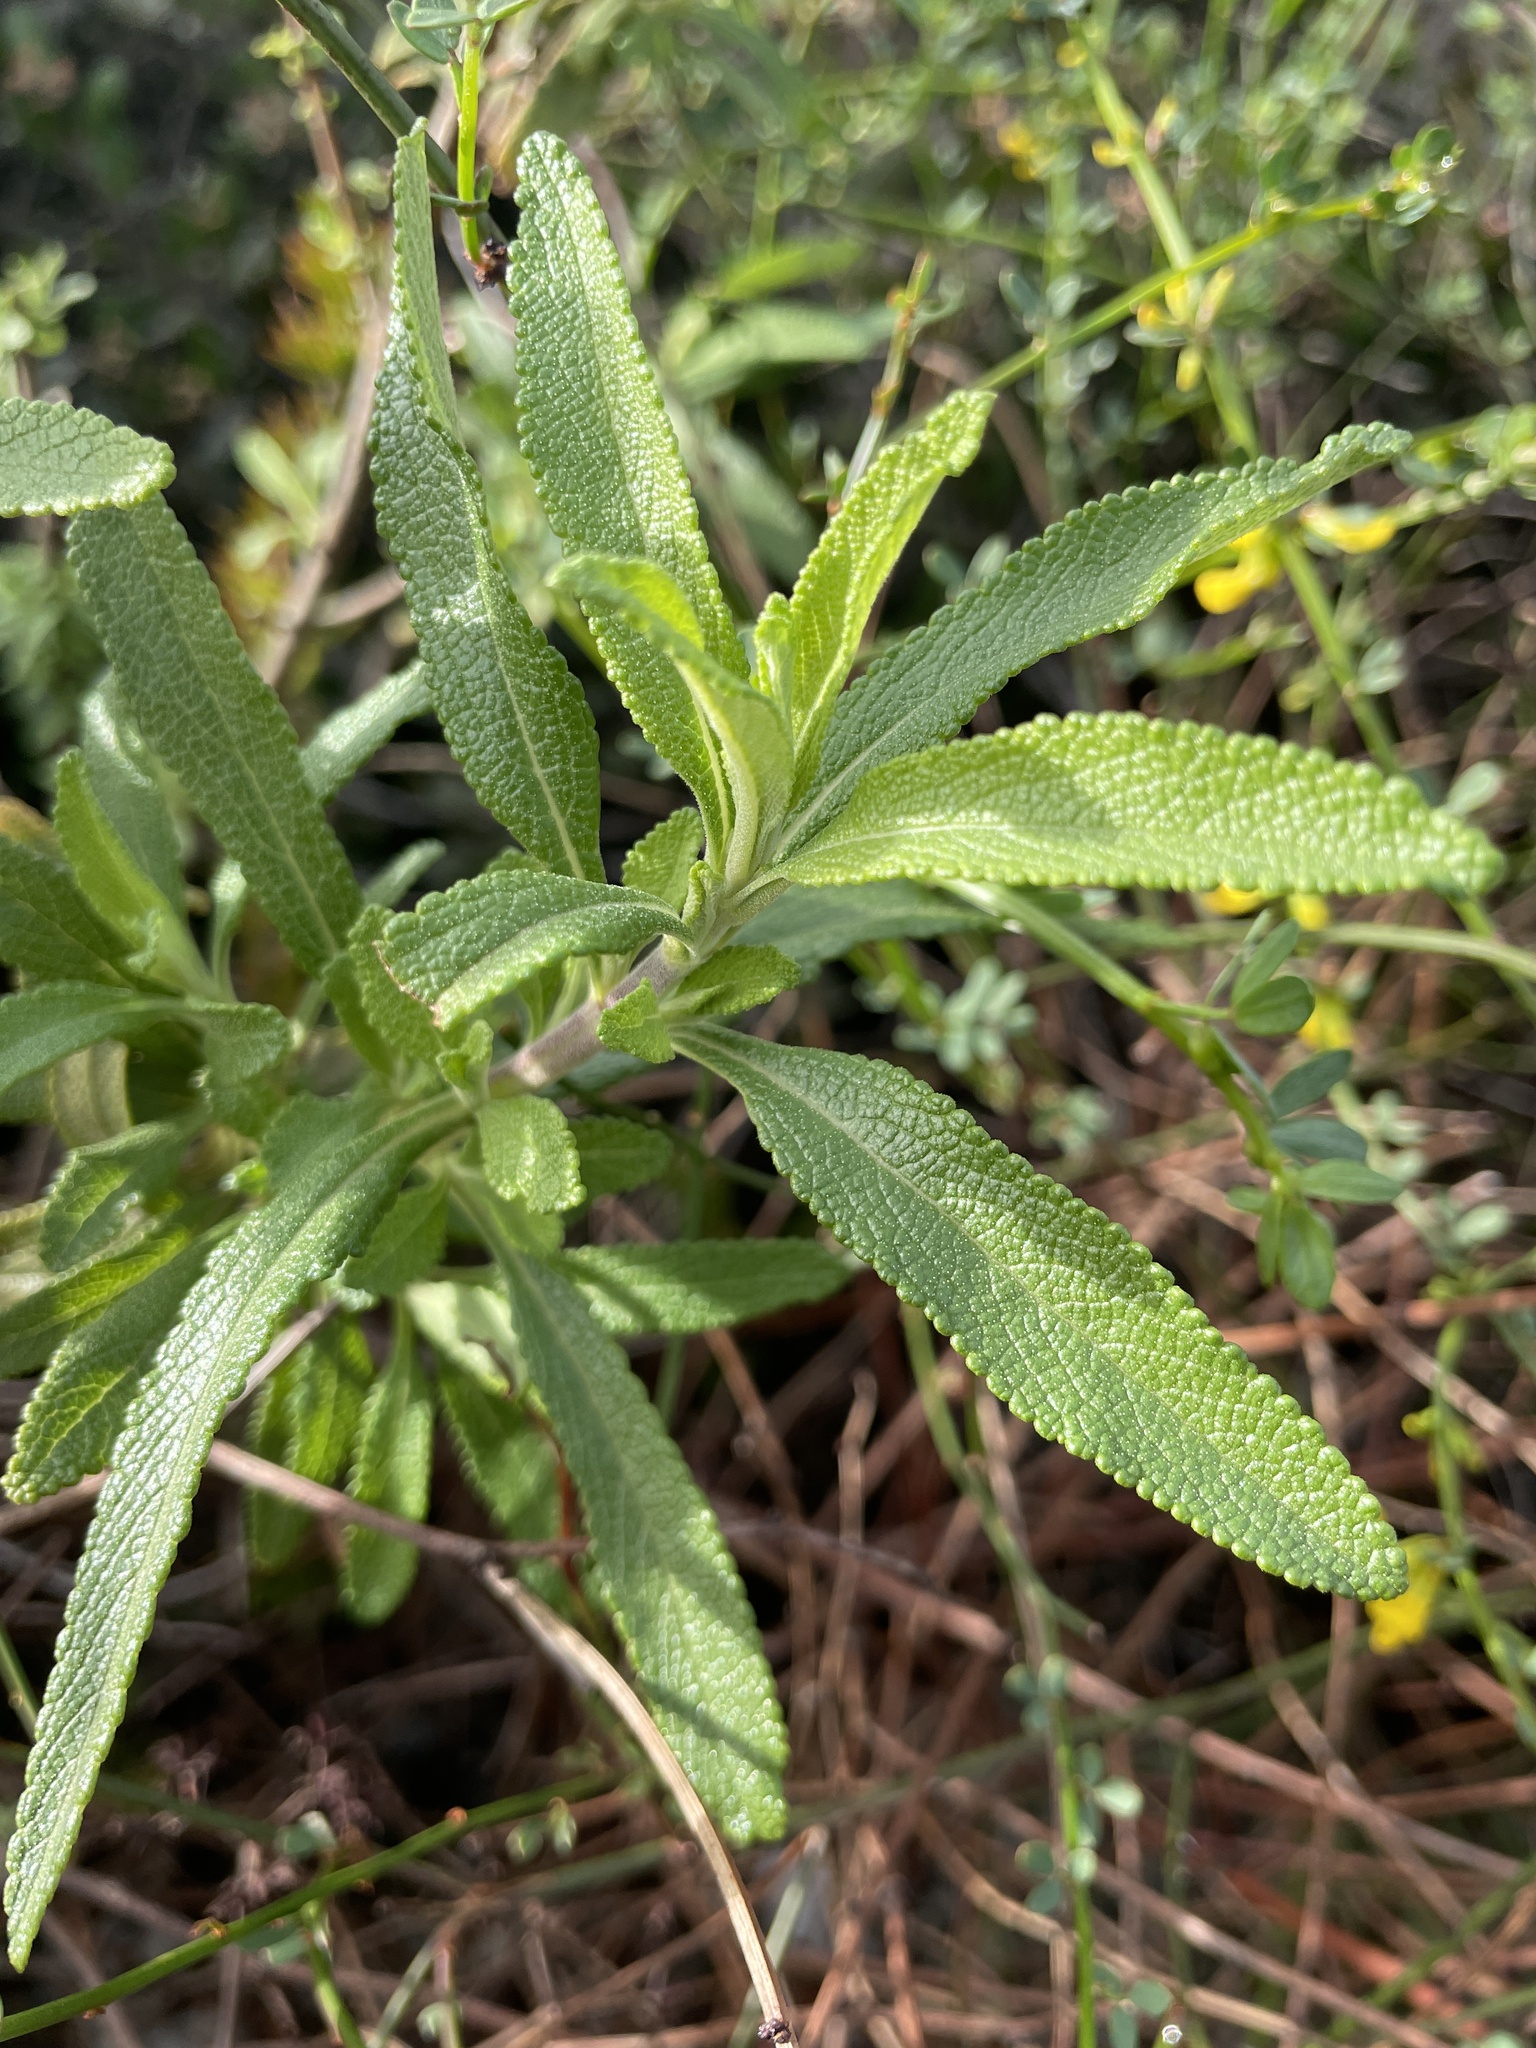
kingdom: Plantae
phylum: Tracheophyta
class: Magnoliopsida
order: Lamiales
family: Lamiaceae
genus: Salvia
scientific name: Salvia mellifera
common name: Black sage
